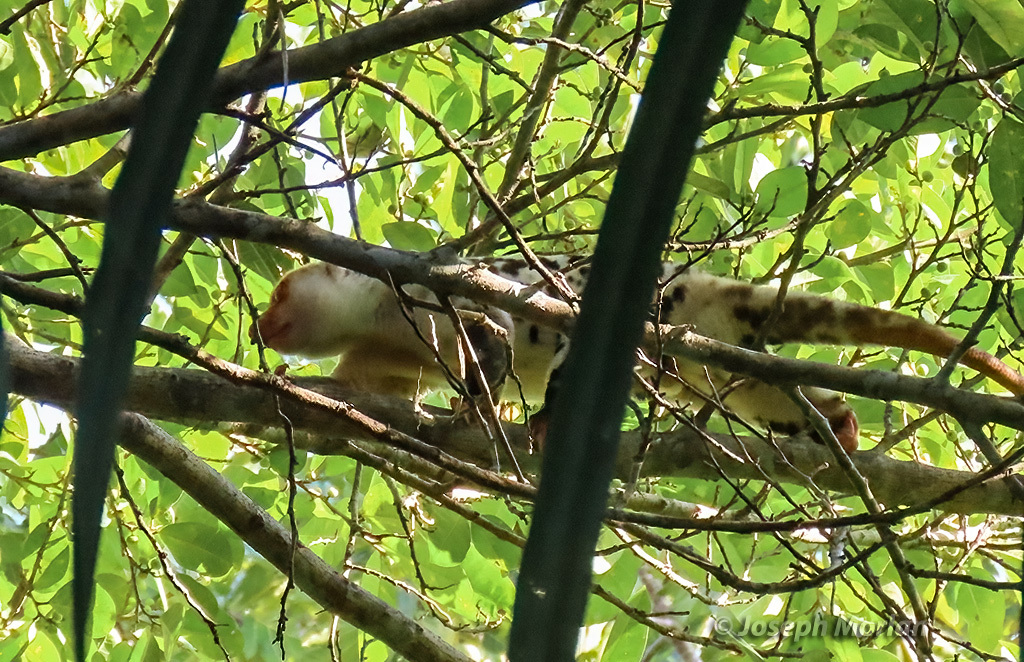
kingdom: Animalia
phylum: Chordata
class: Mammalia
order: Diprotodontia
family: Phalangeridae
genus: Spilocuscus
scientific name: Spilocuscus papuensis
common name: Waigeou cuscus
